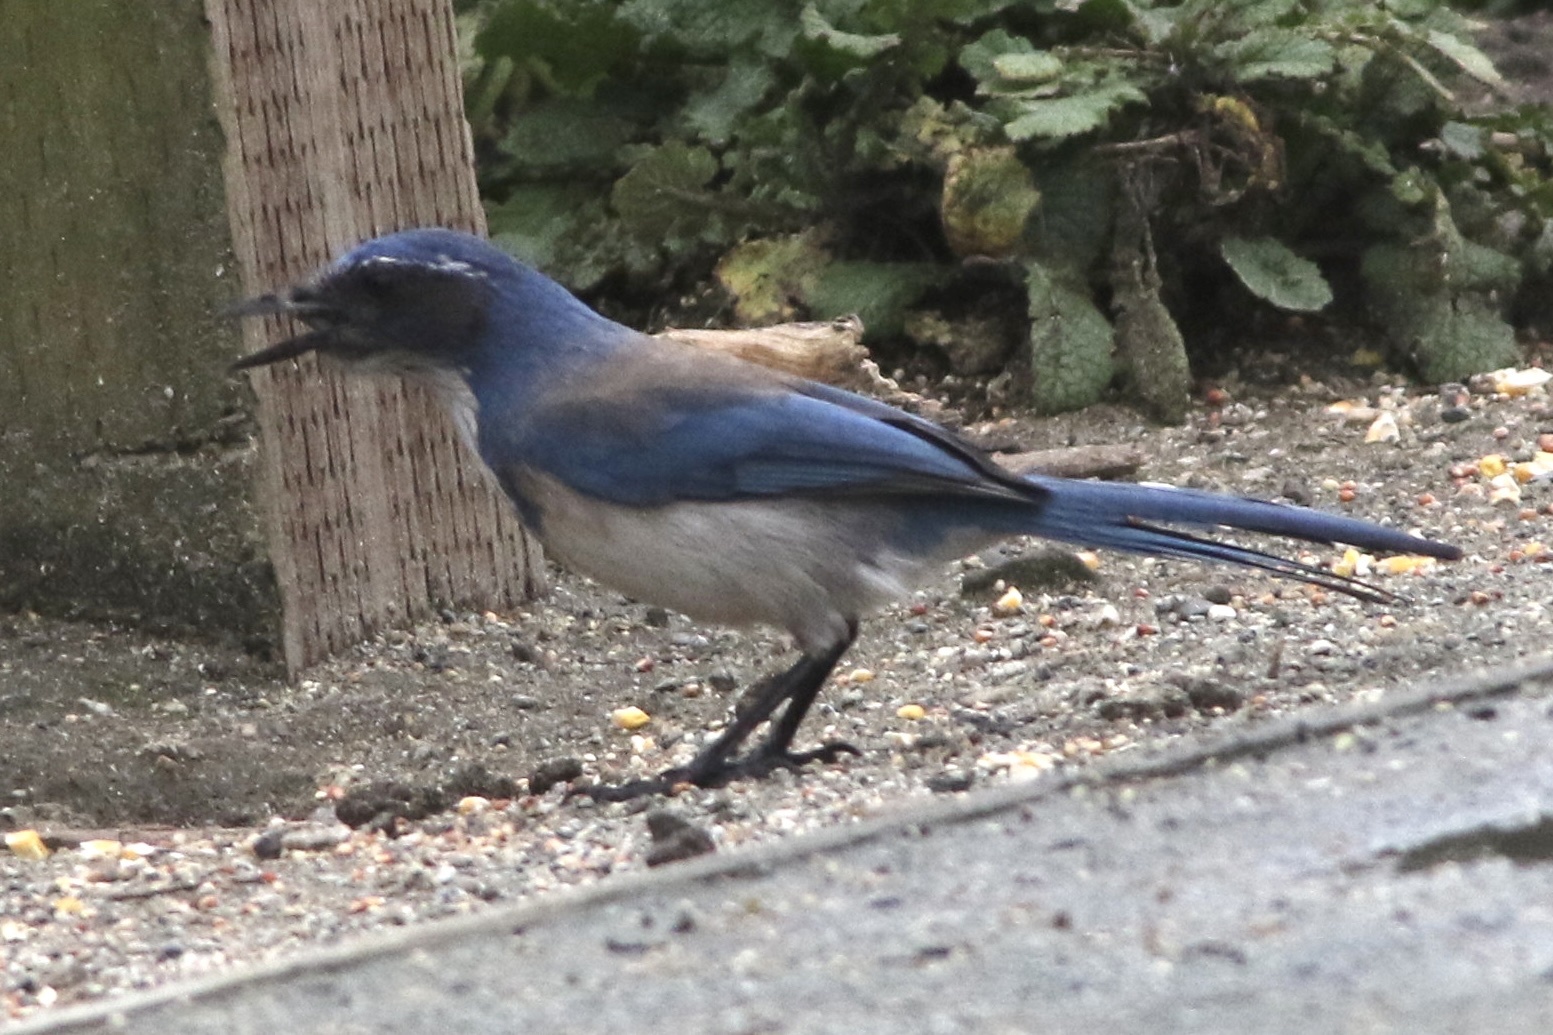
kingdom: Animalia
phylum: Chordata
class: Aves
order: Passeriformes
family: Corvidae
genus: Aphelocoma
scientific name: Aphelocoma californica
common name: California scrub-jay
